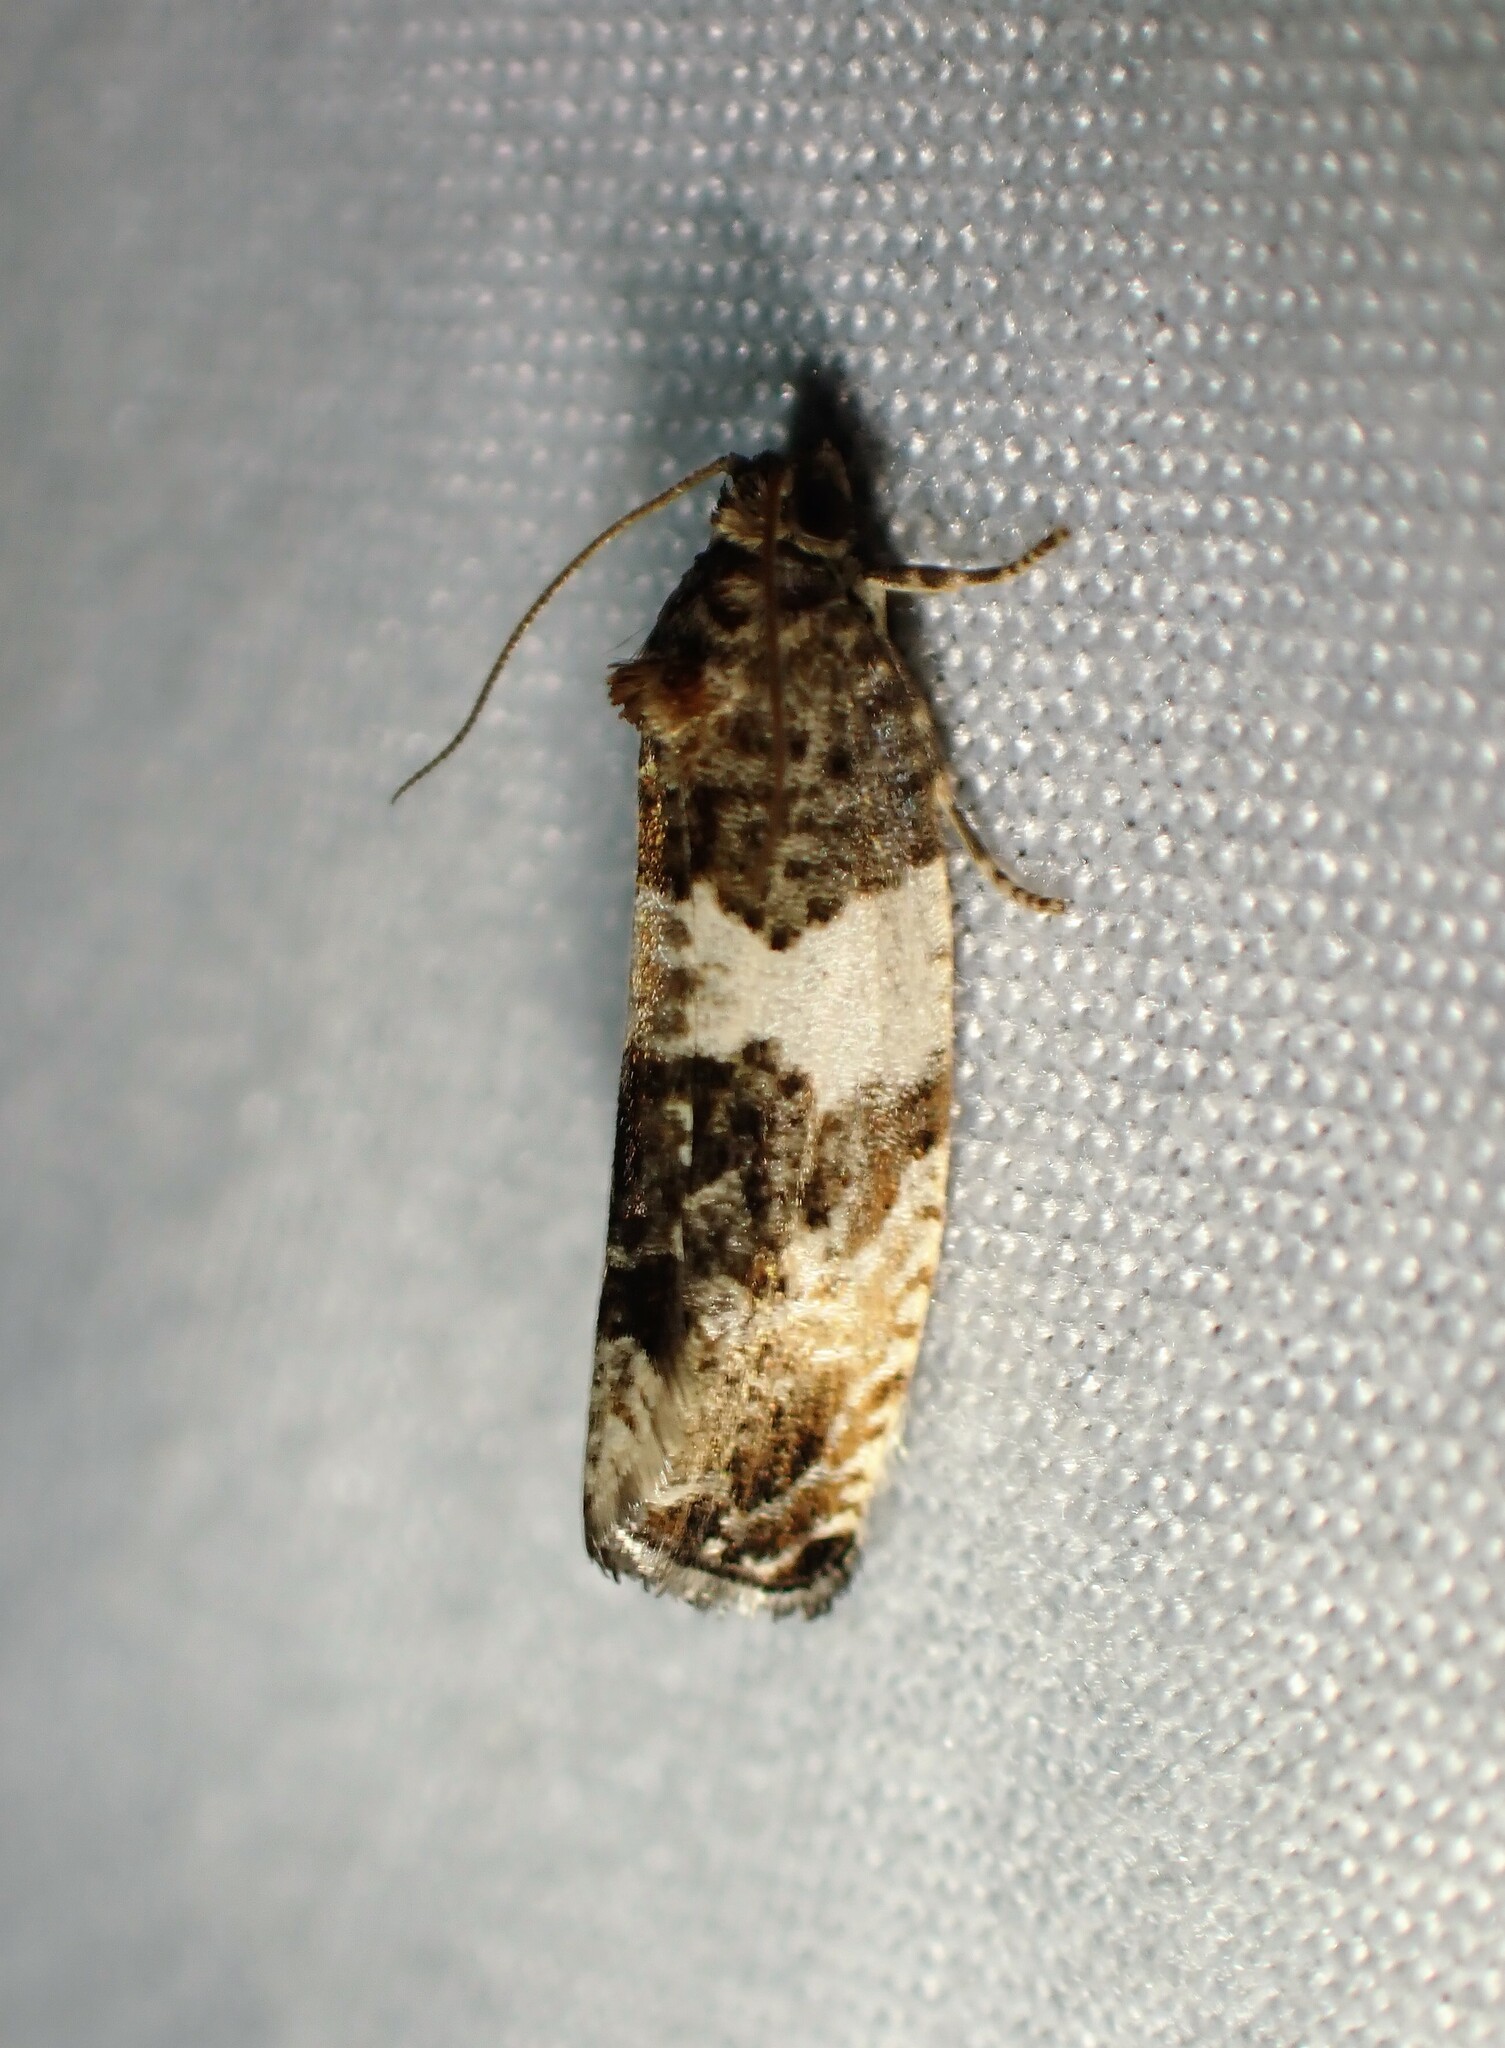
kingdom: Animalia
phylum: Arthropoda
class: Insecta
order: Lepidoptera
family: Tortricidae
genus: Pseudosciaphila
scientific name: Pseudosciaphila duplex
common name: Poplar leafroller moth
